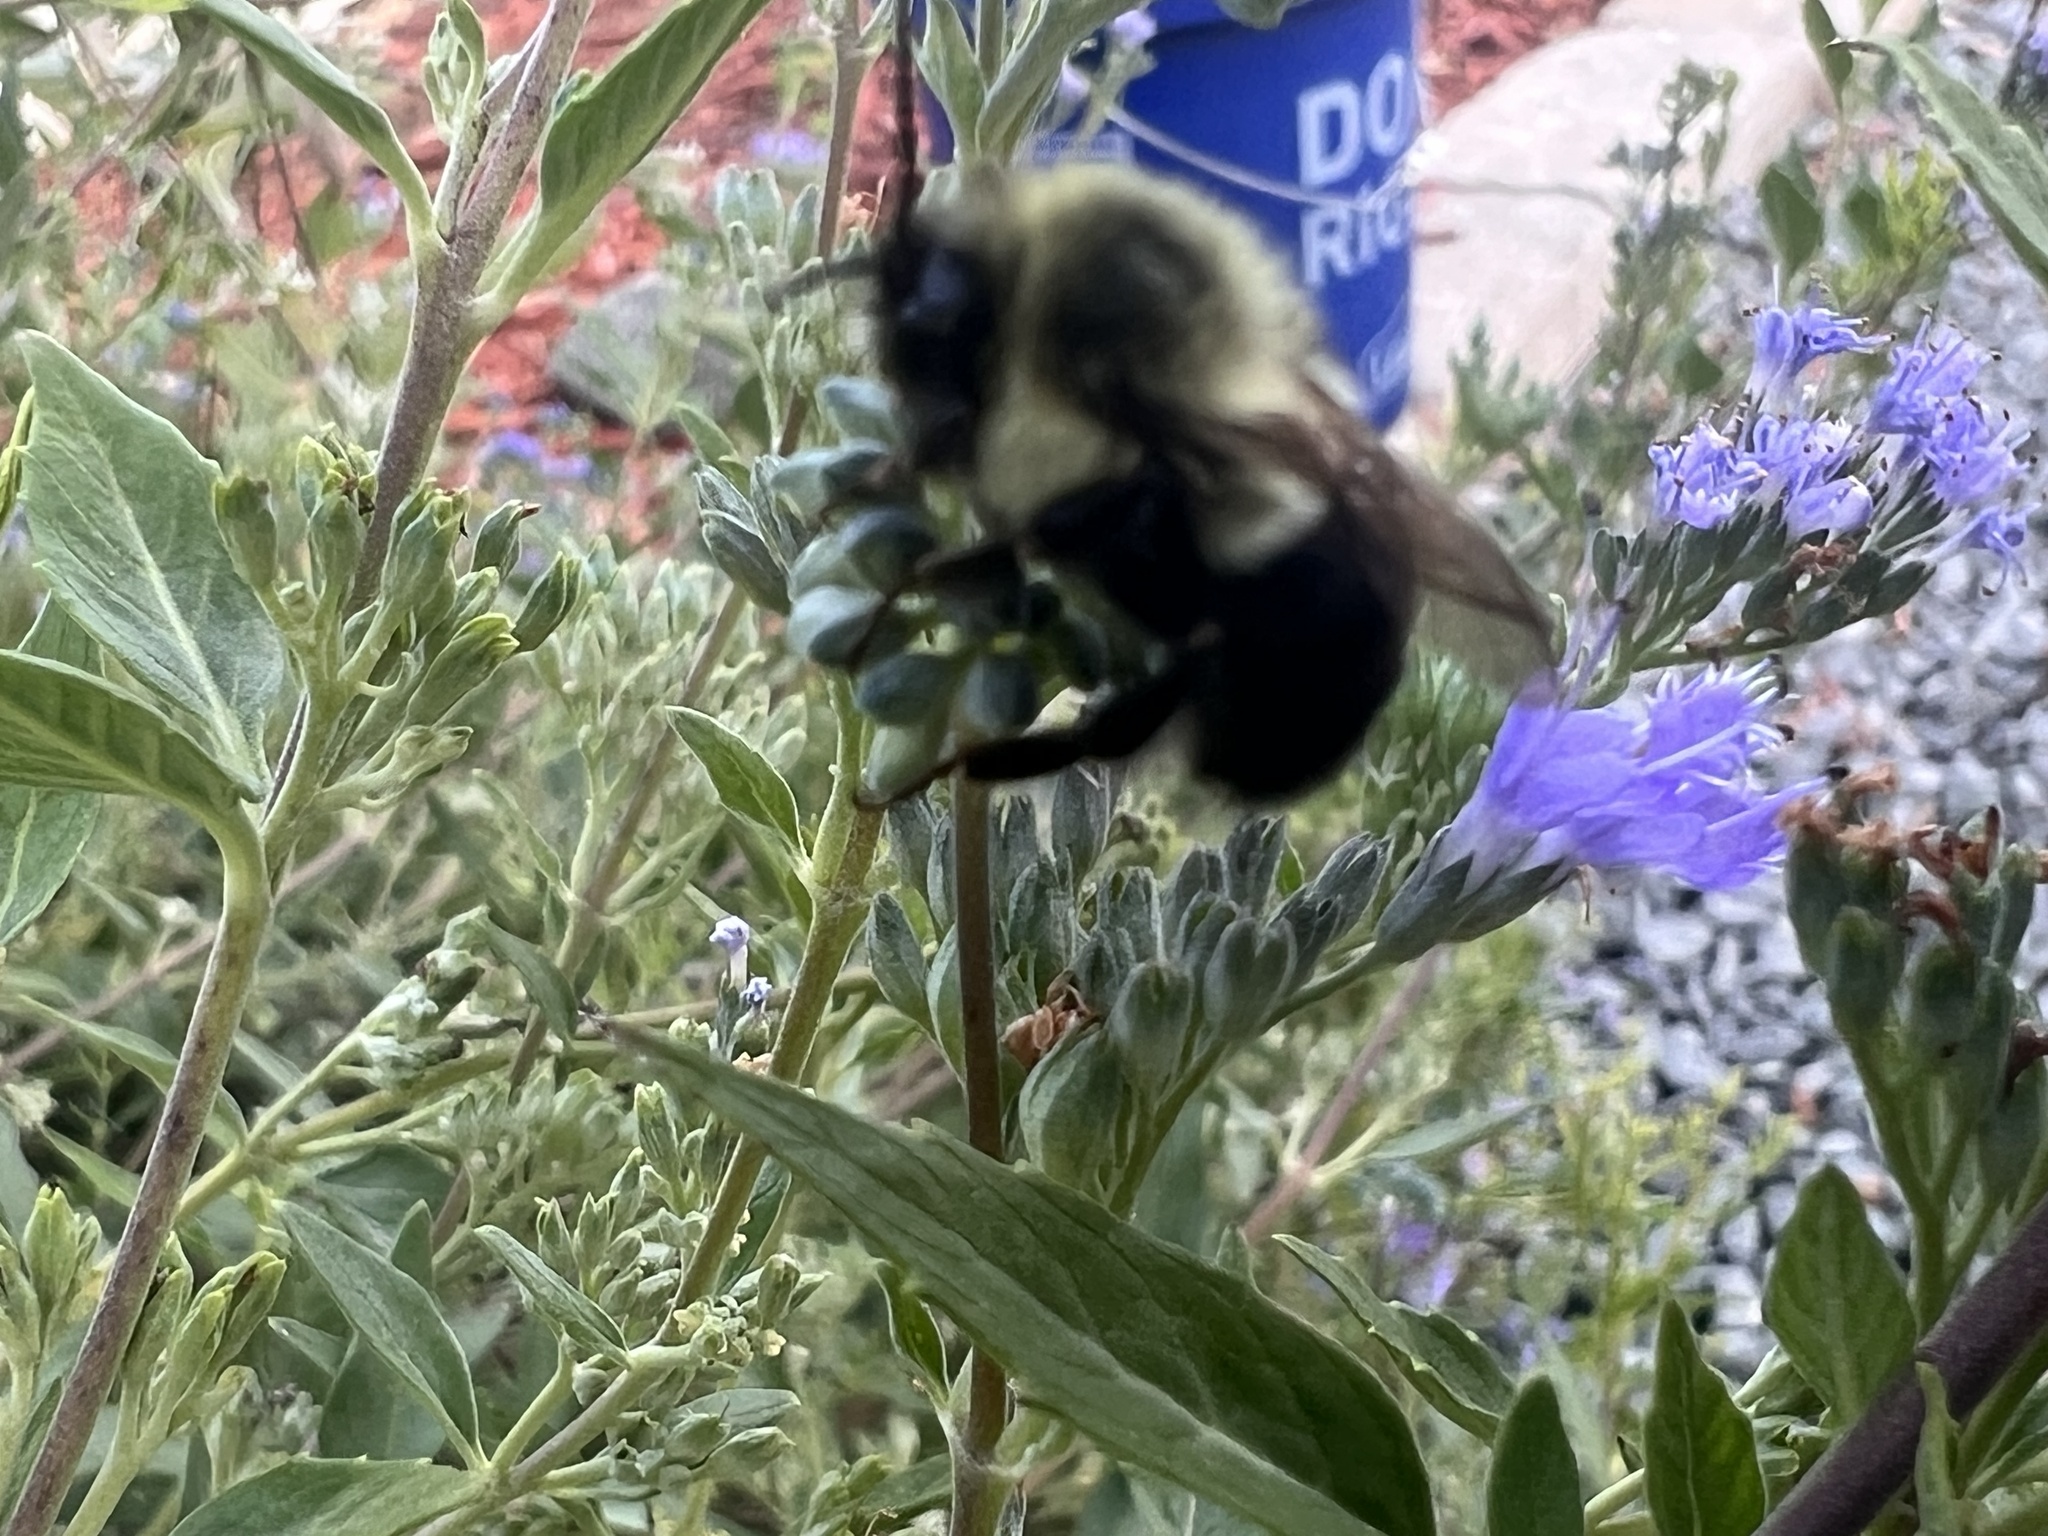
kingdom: Animalia
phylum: Arthropoda
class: Insecta
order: Hymenoptera
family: Apidae
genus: Bombus
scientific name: Bombus impatiens
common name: Common eastern bumble bee
